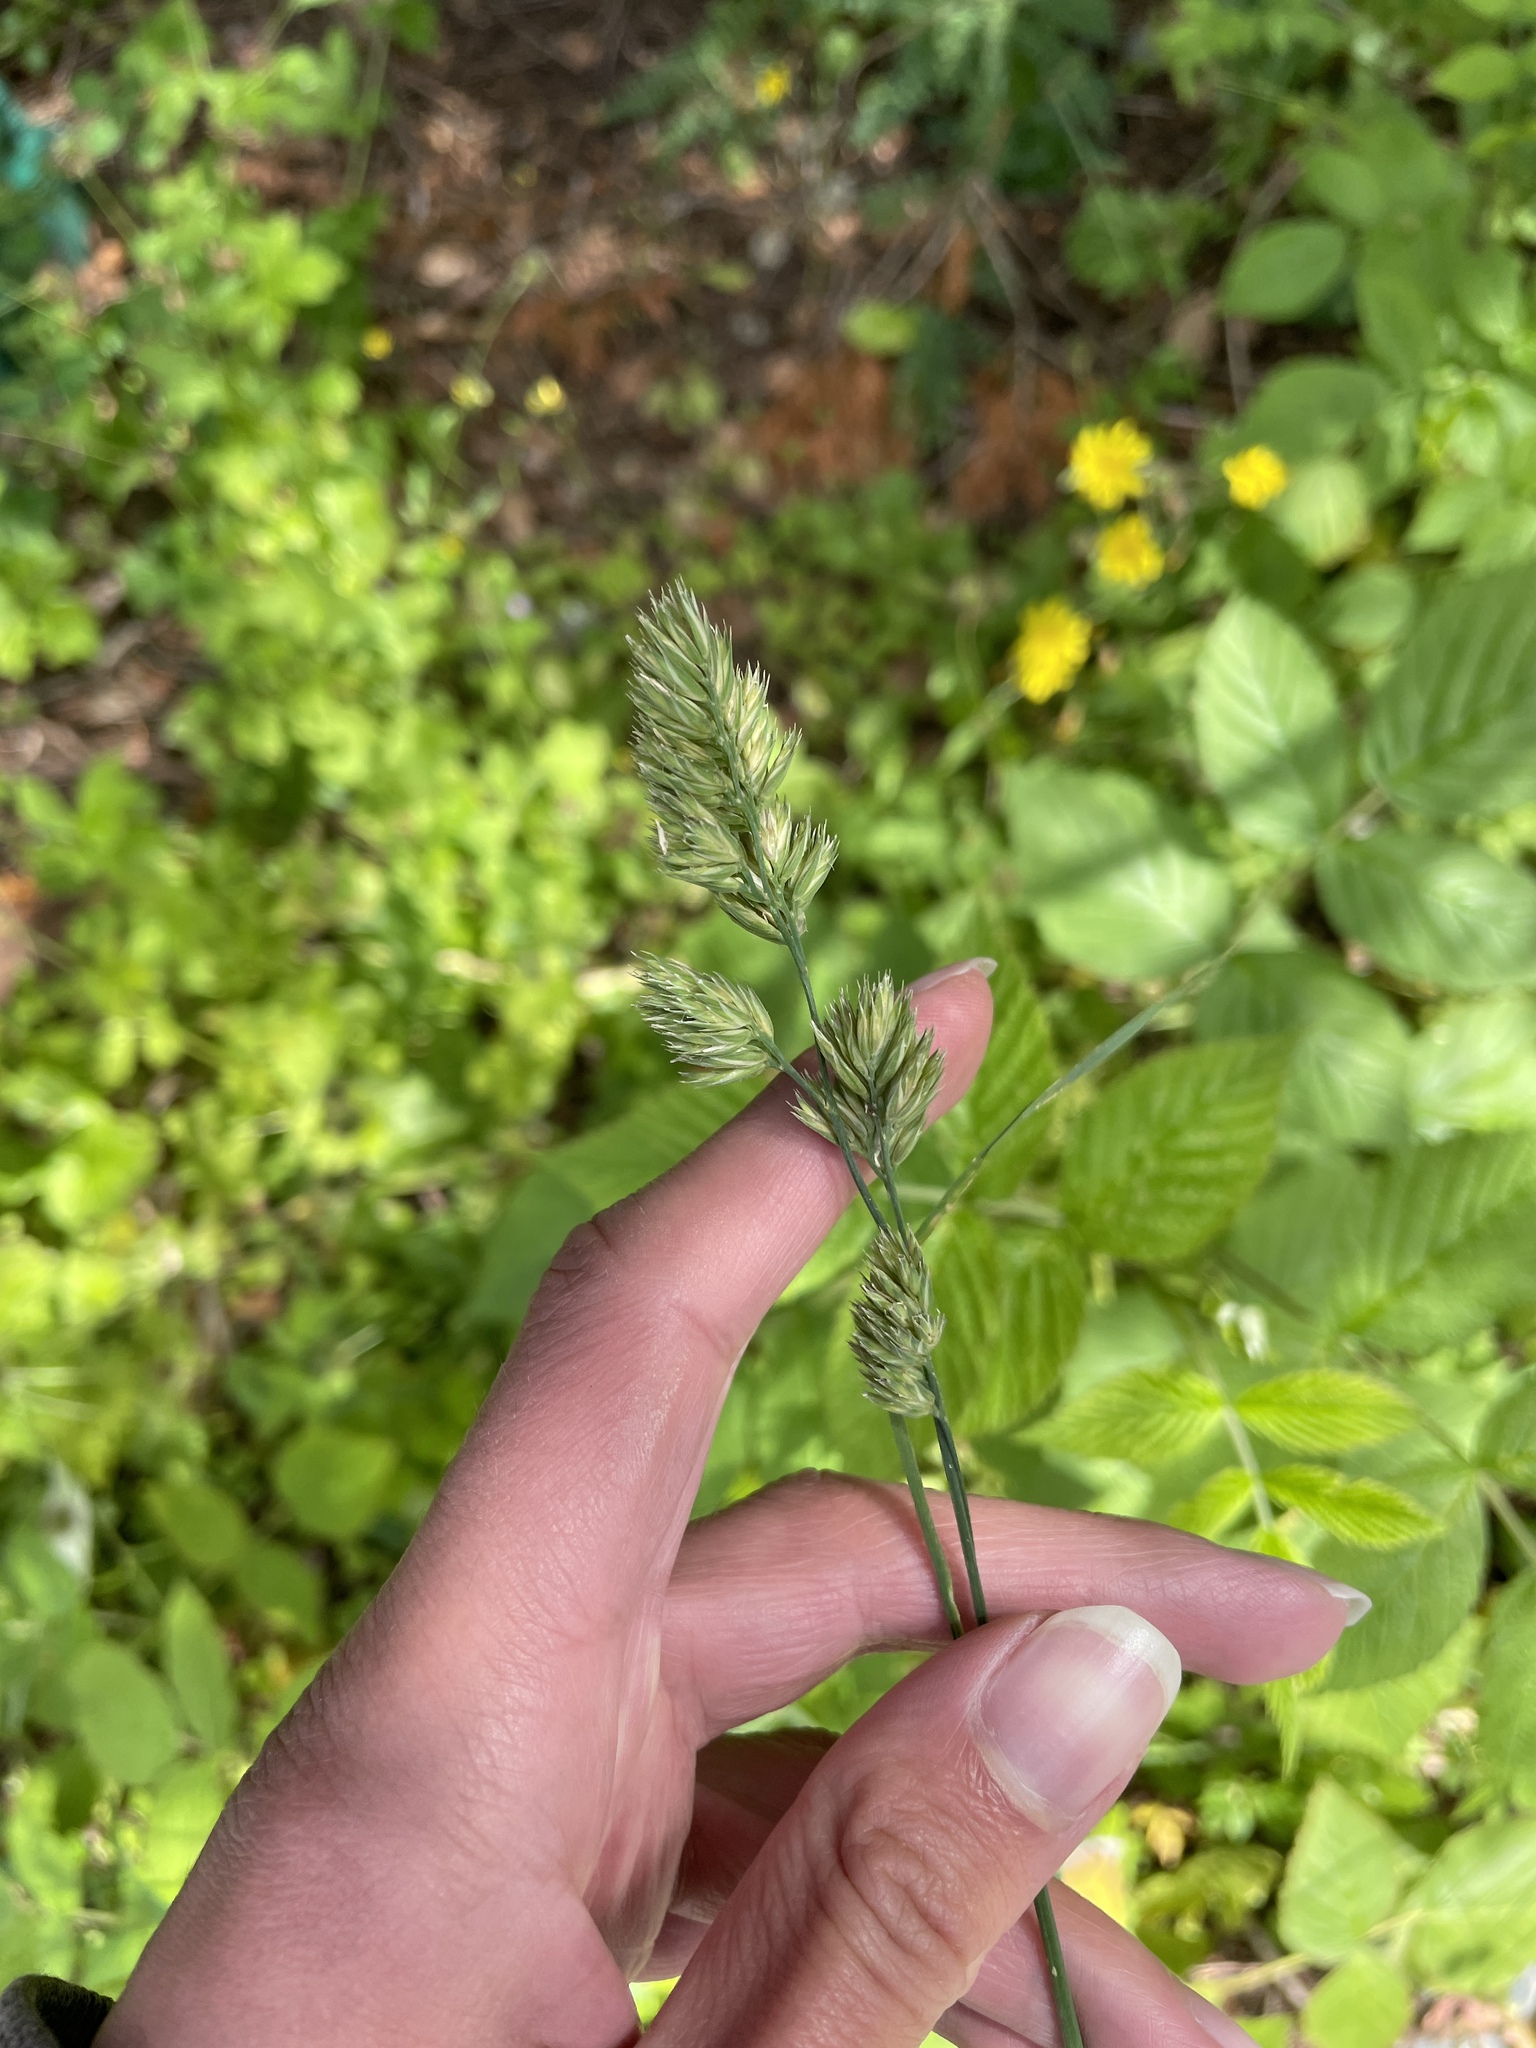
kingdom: Plantae
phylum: Tracheophyta
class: Liliopsida
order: Poales
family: Poaceae
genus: Dactylis
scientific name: Dactylis glomerata
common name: Orchardgrass
